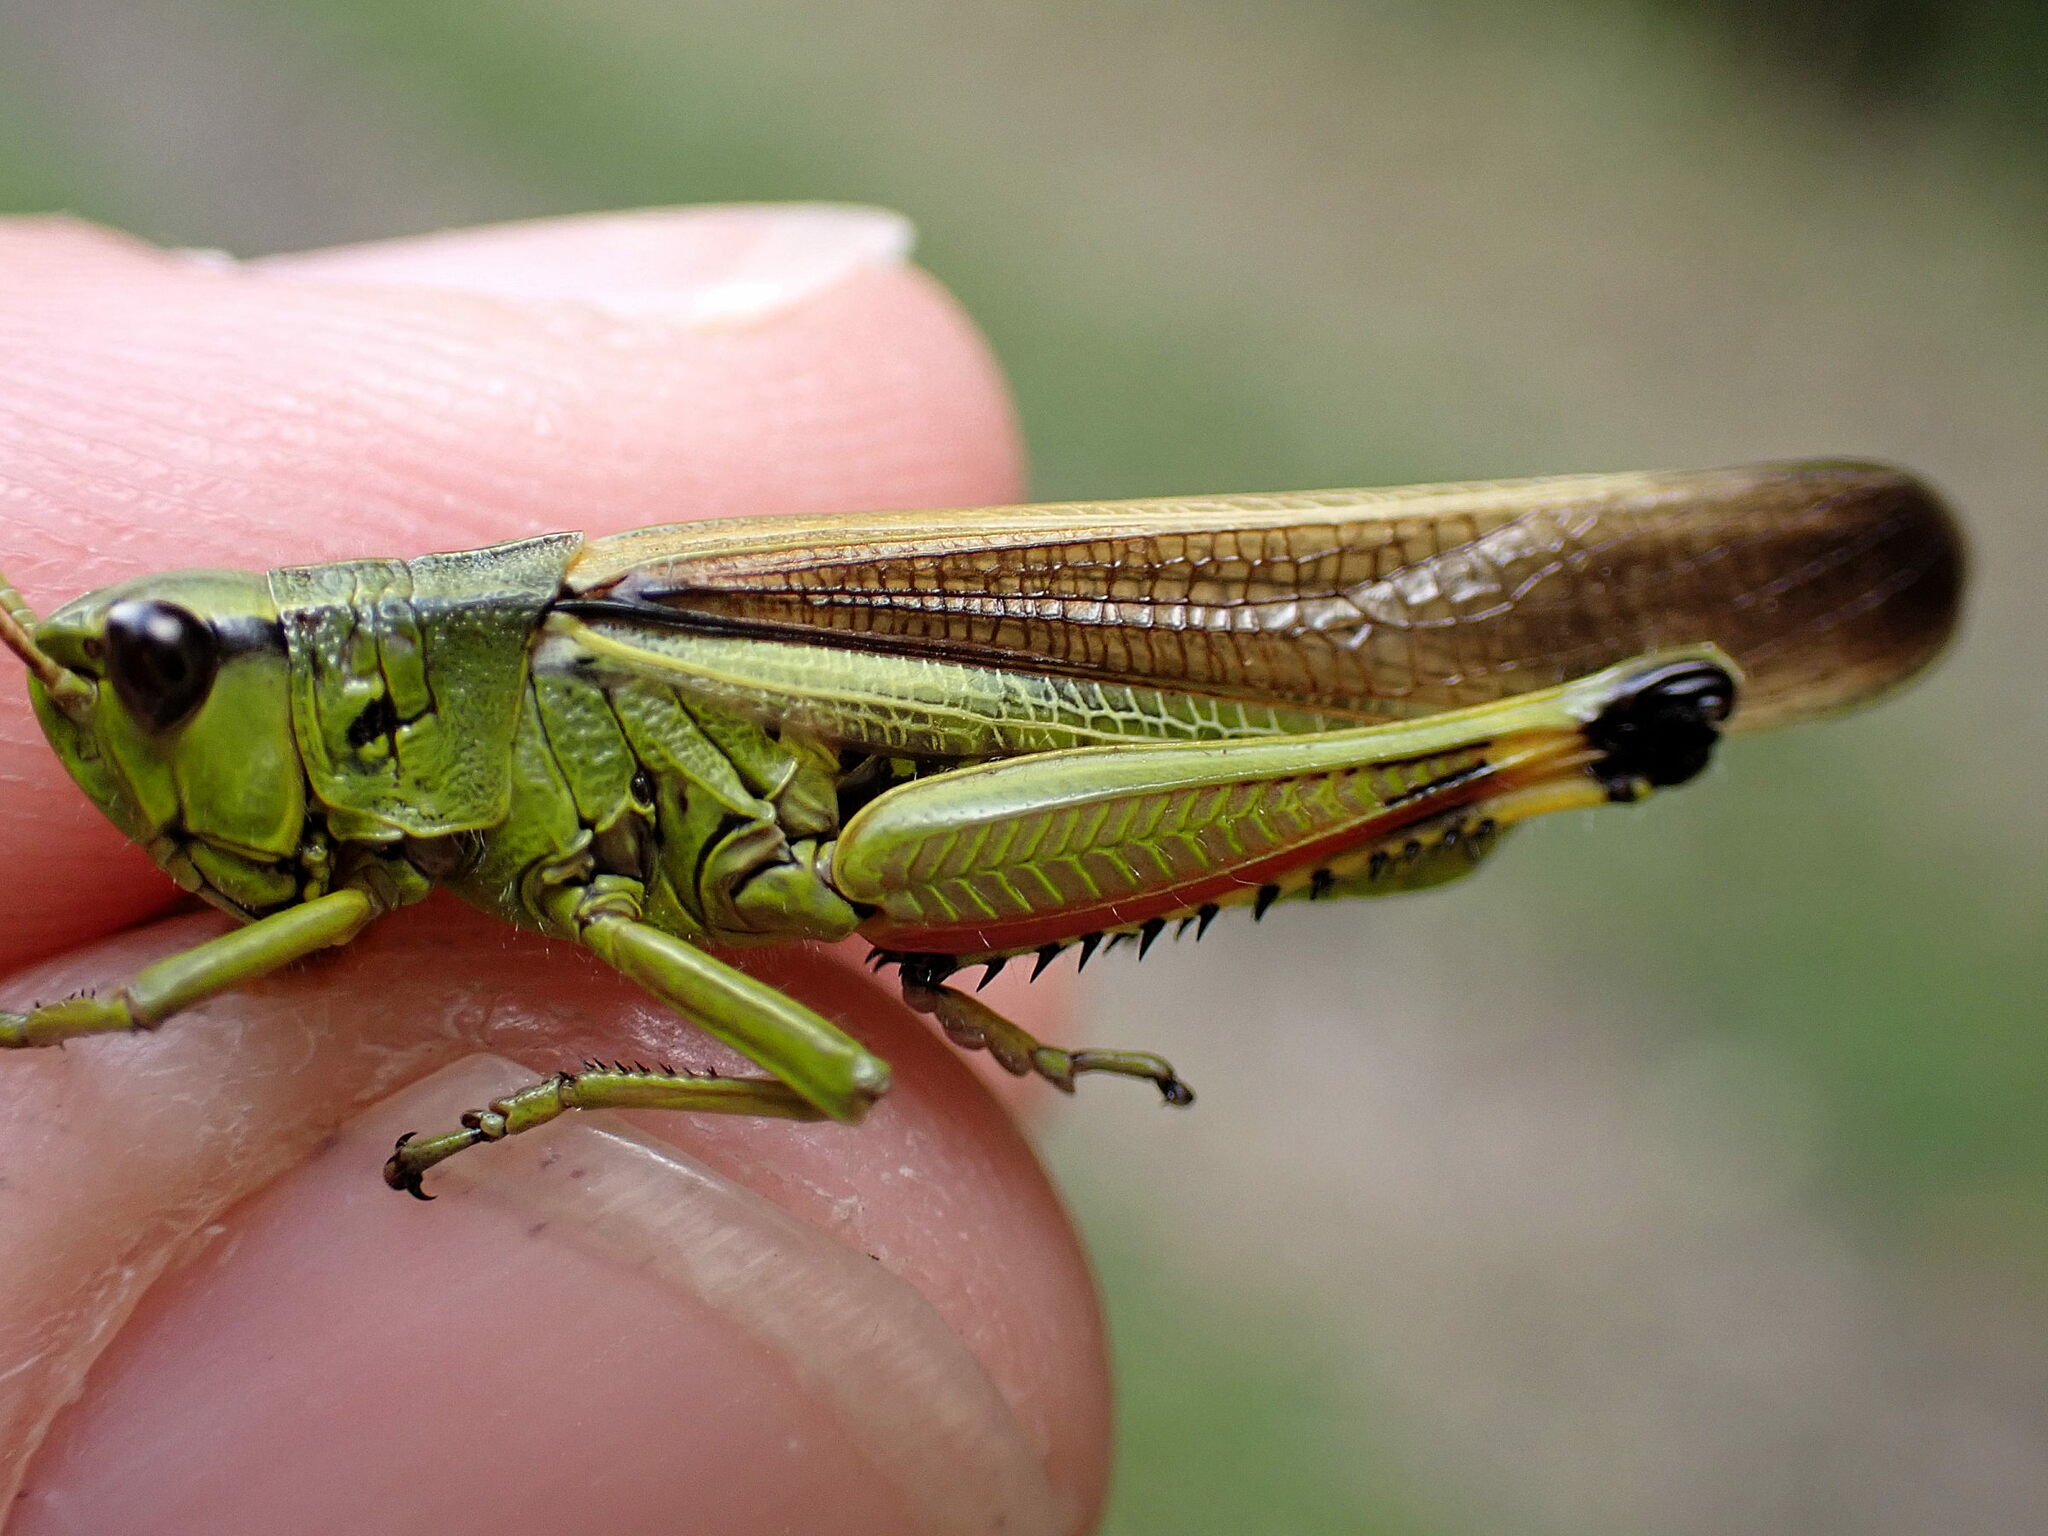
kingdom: Animalia
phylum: Arthropoda
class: Insecta
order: Orthoptera
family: Acrididae
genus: Stethophyma
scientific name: Stethophyma grossum
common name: Large marsh grasshopper
